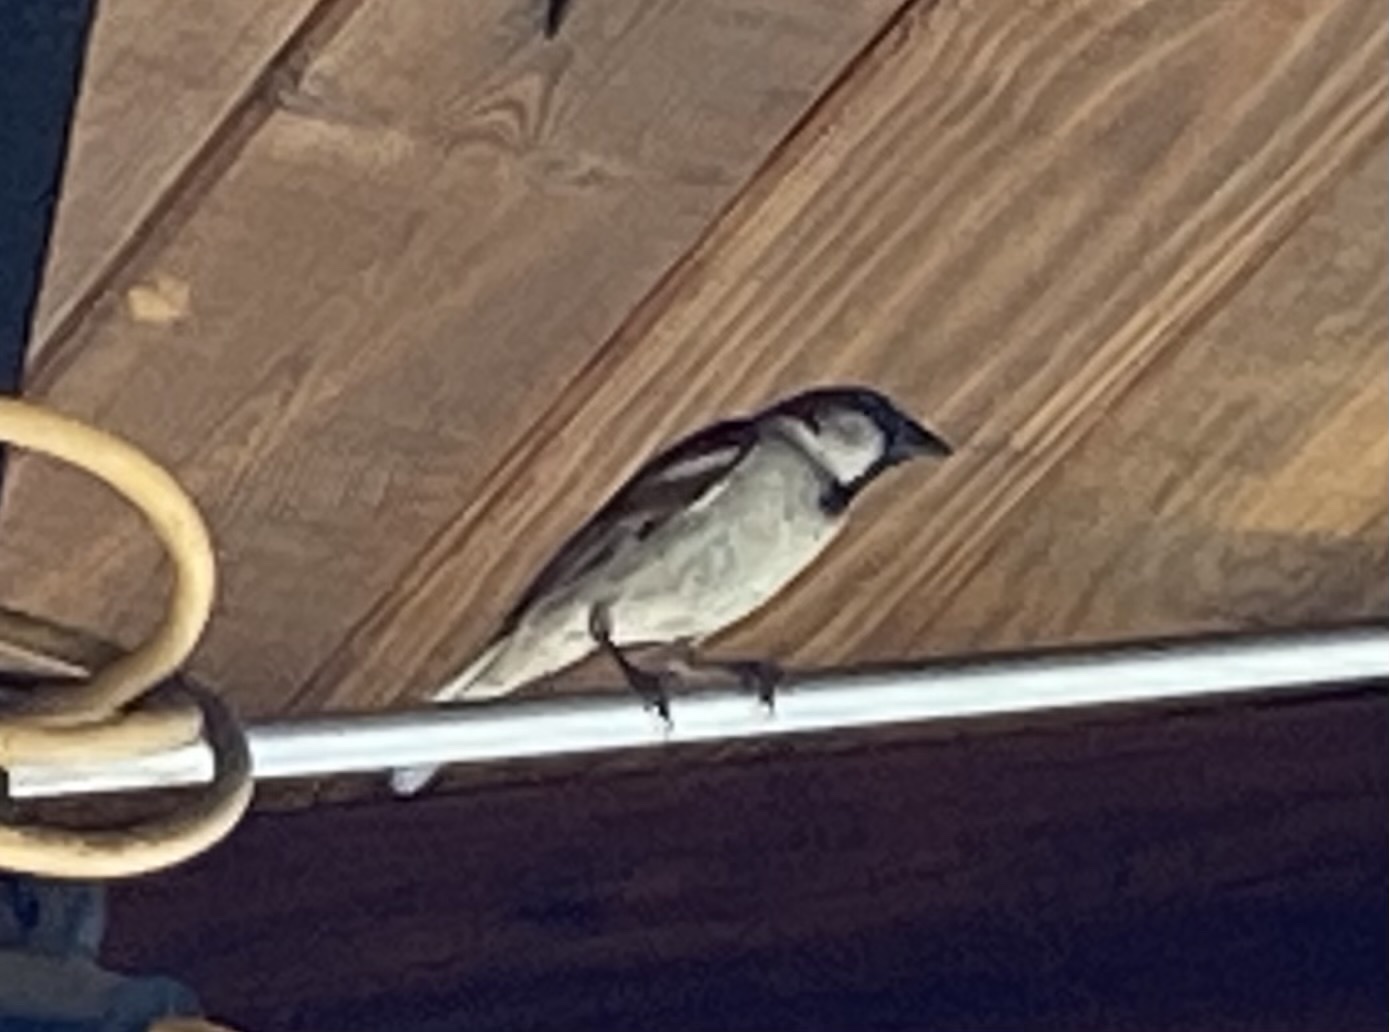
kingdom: Animalia
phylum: Chordata
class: Aves
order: Passeriformes
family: Passeridae
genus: Passer
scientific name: Passer domesticus
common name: House sparrow
